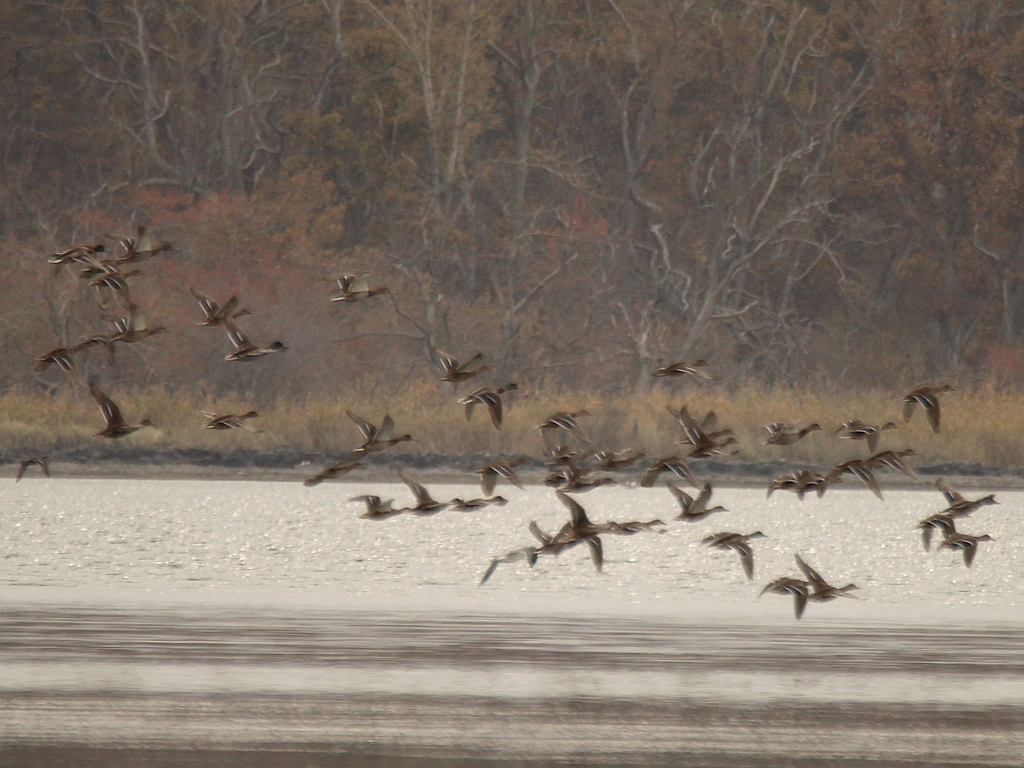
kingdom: Animalia
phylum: Chordata
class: Aves
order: Anseriformes
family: Anatidae
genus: Anas
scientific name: Anas platyrhynchos
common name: Mallard
